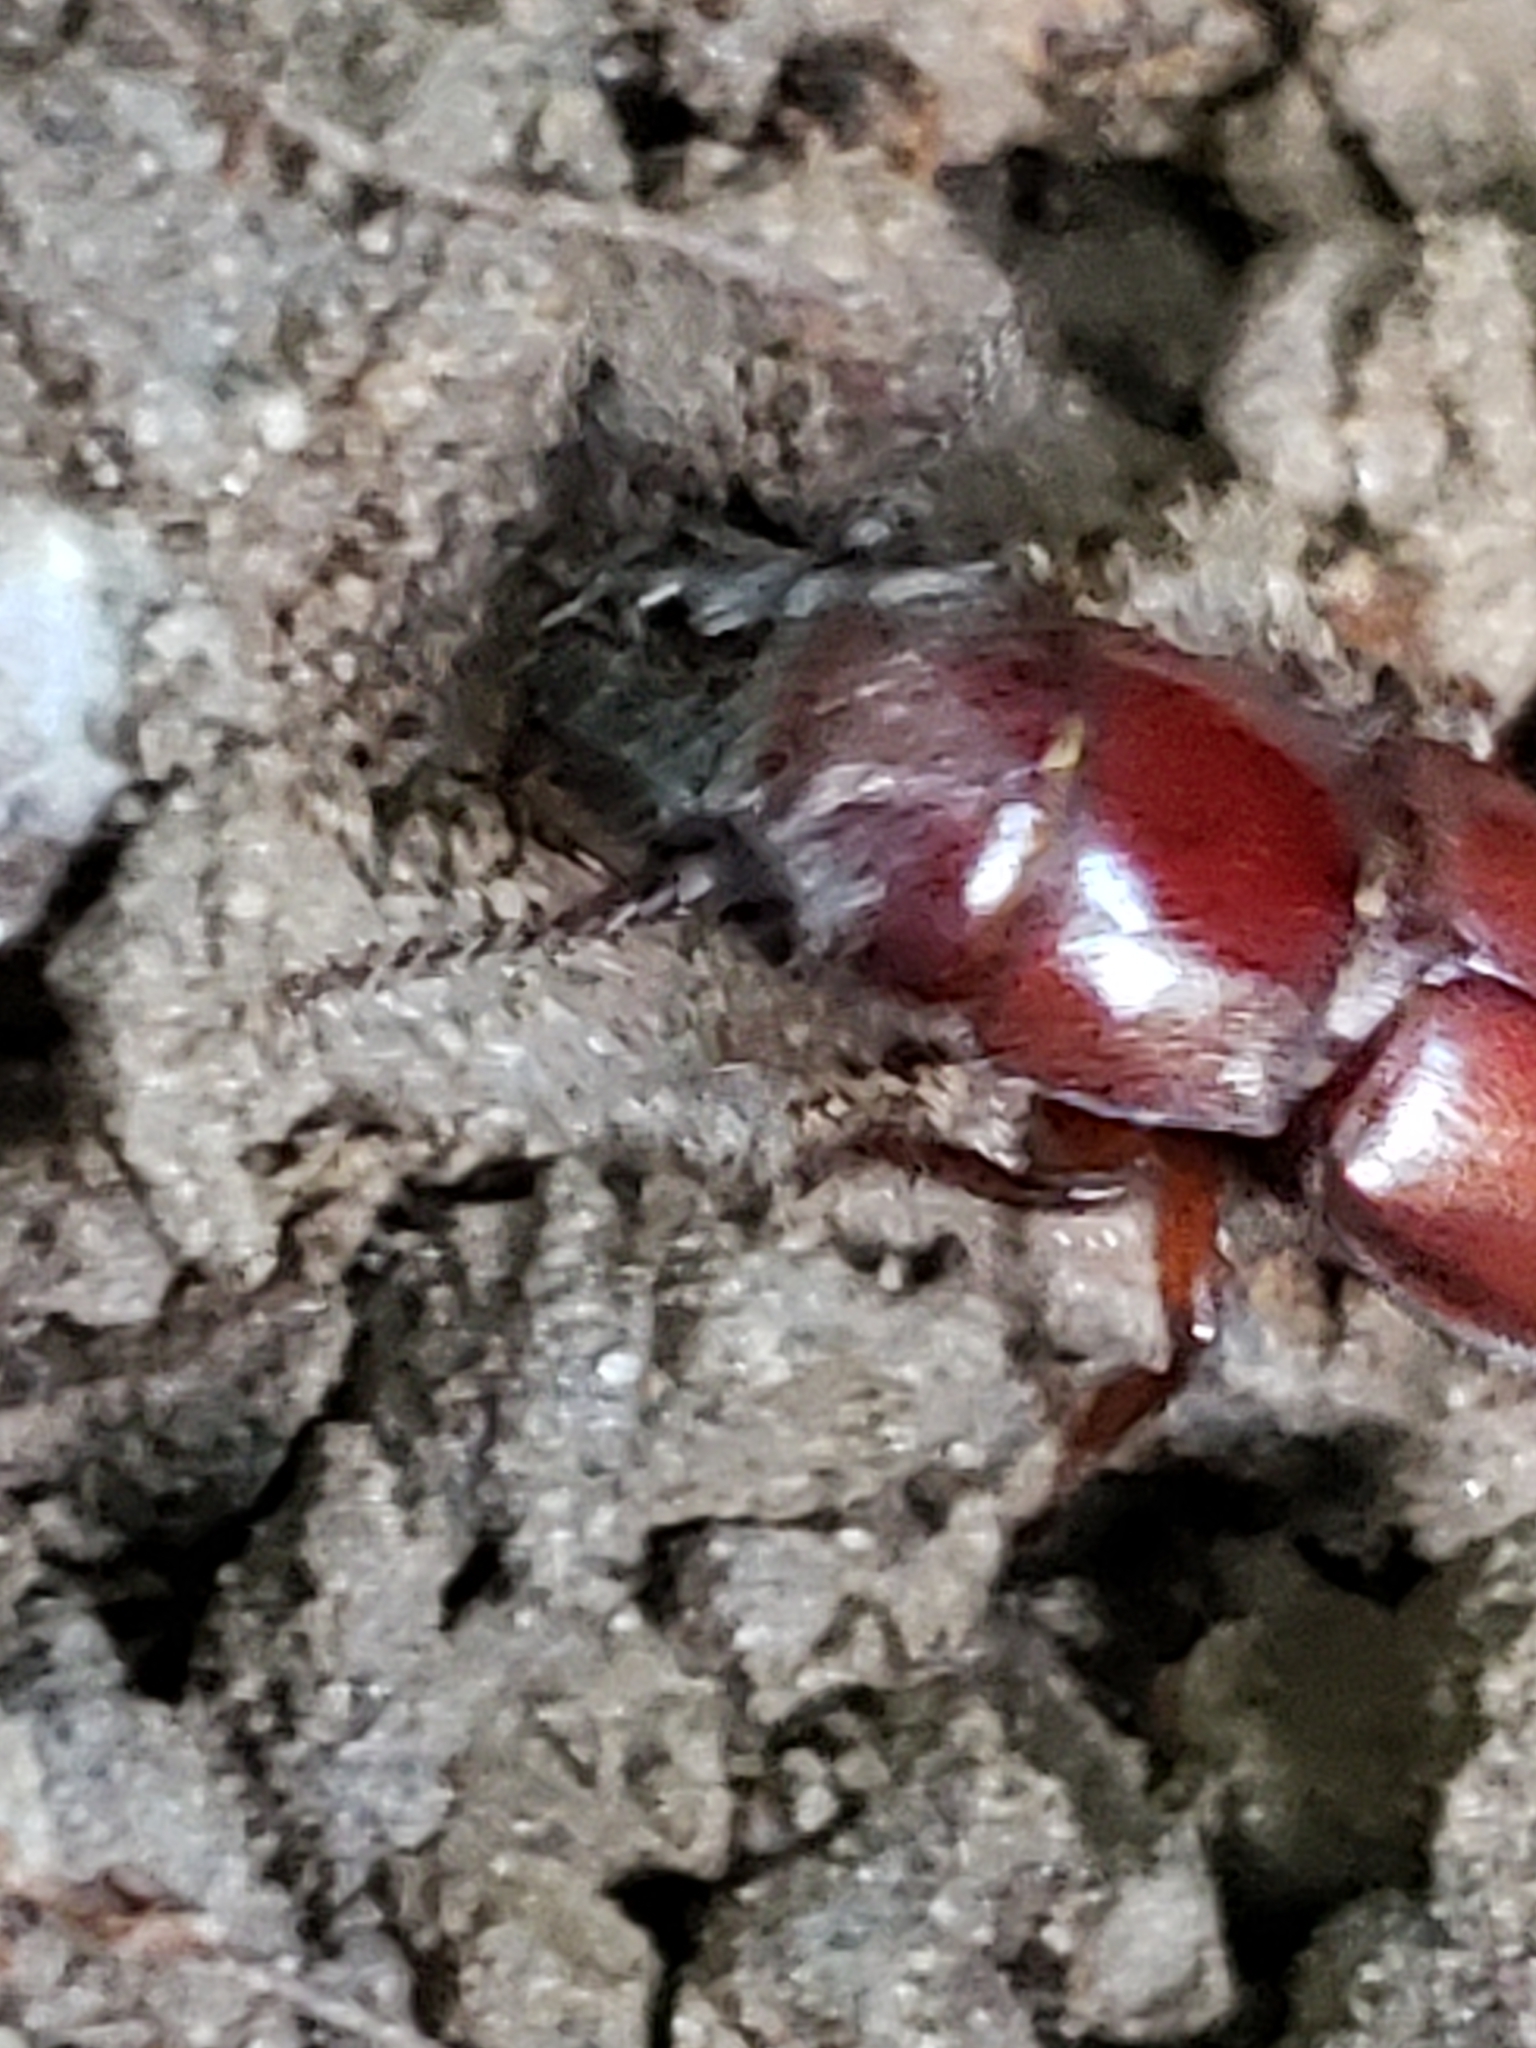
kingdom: Animalia
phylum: Arthropoda
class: Insecta
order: Coleoptera
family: Cerambycidae
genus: Neandra
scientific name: Neandra brunnea
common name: Pole borer
